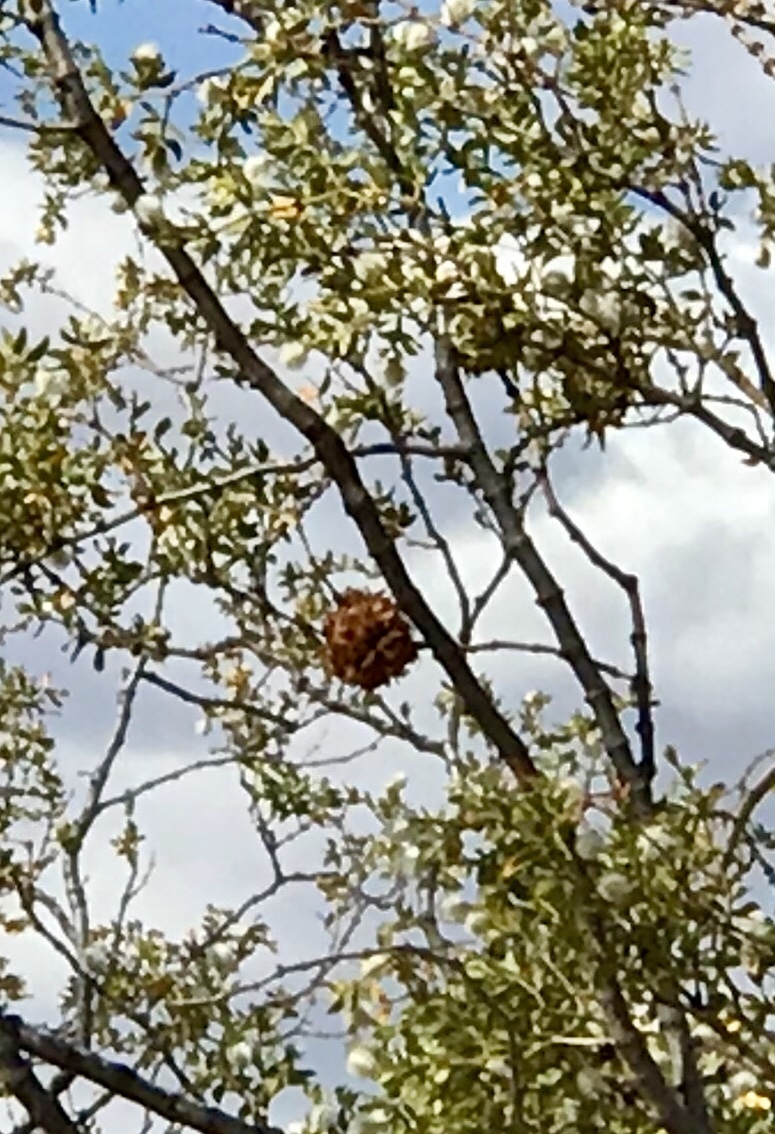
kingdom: Animalia
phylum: Arthropoda
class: Insecta
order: Diptera
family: Cecidomyiidae
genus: Asphondylia
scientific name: Asphondylia auripila
